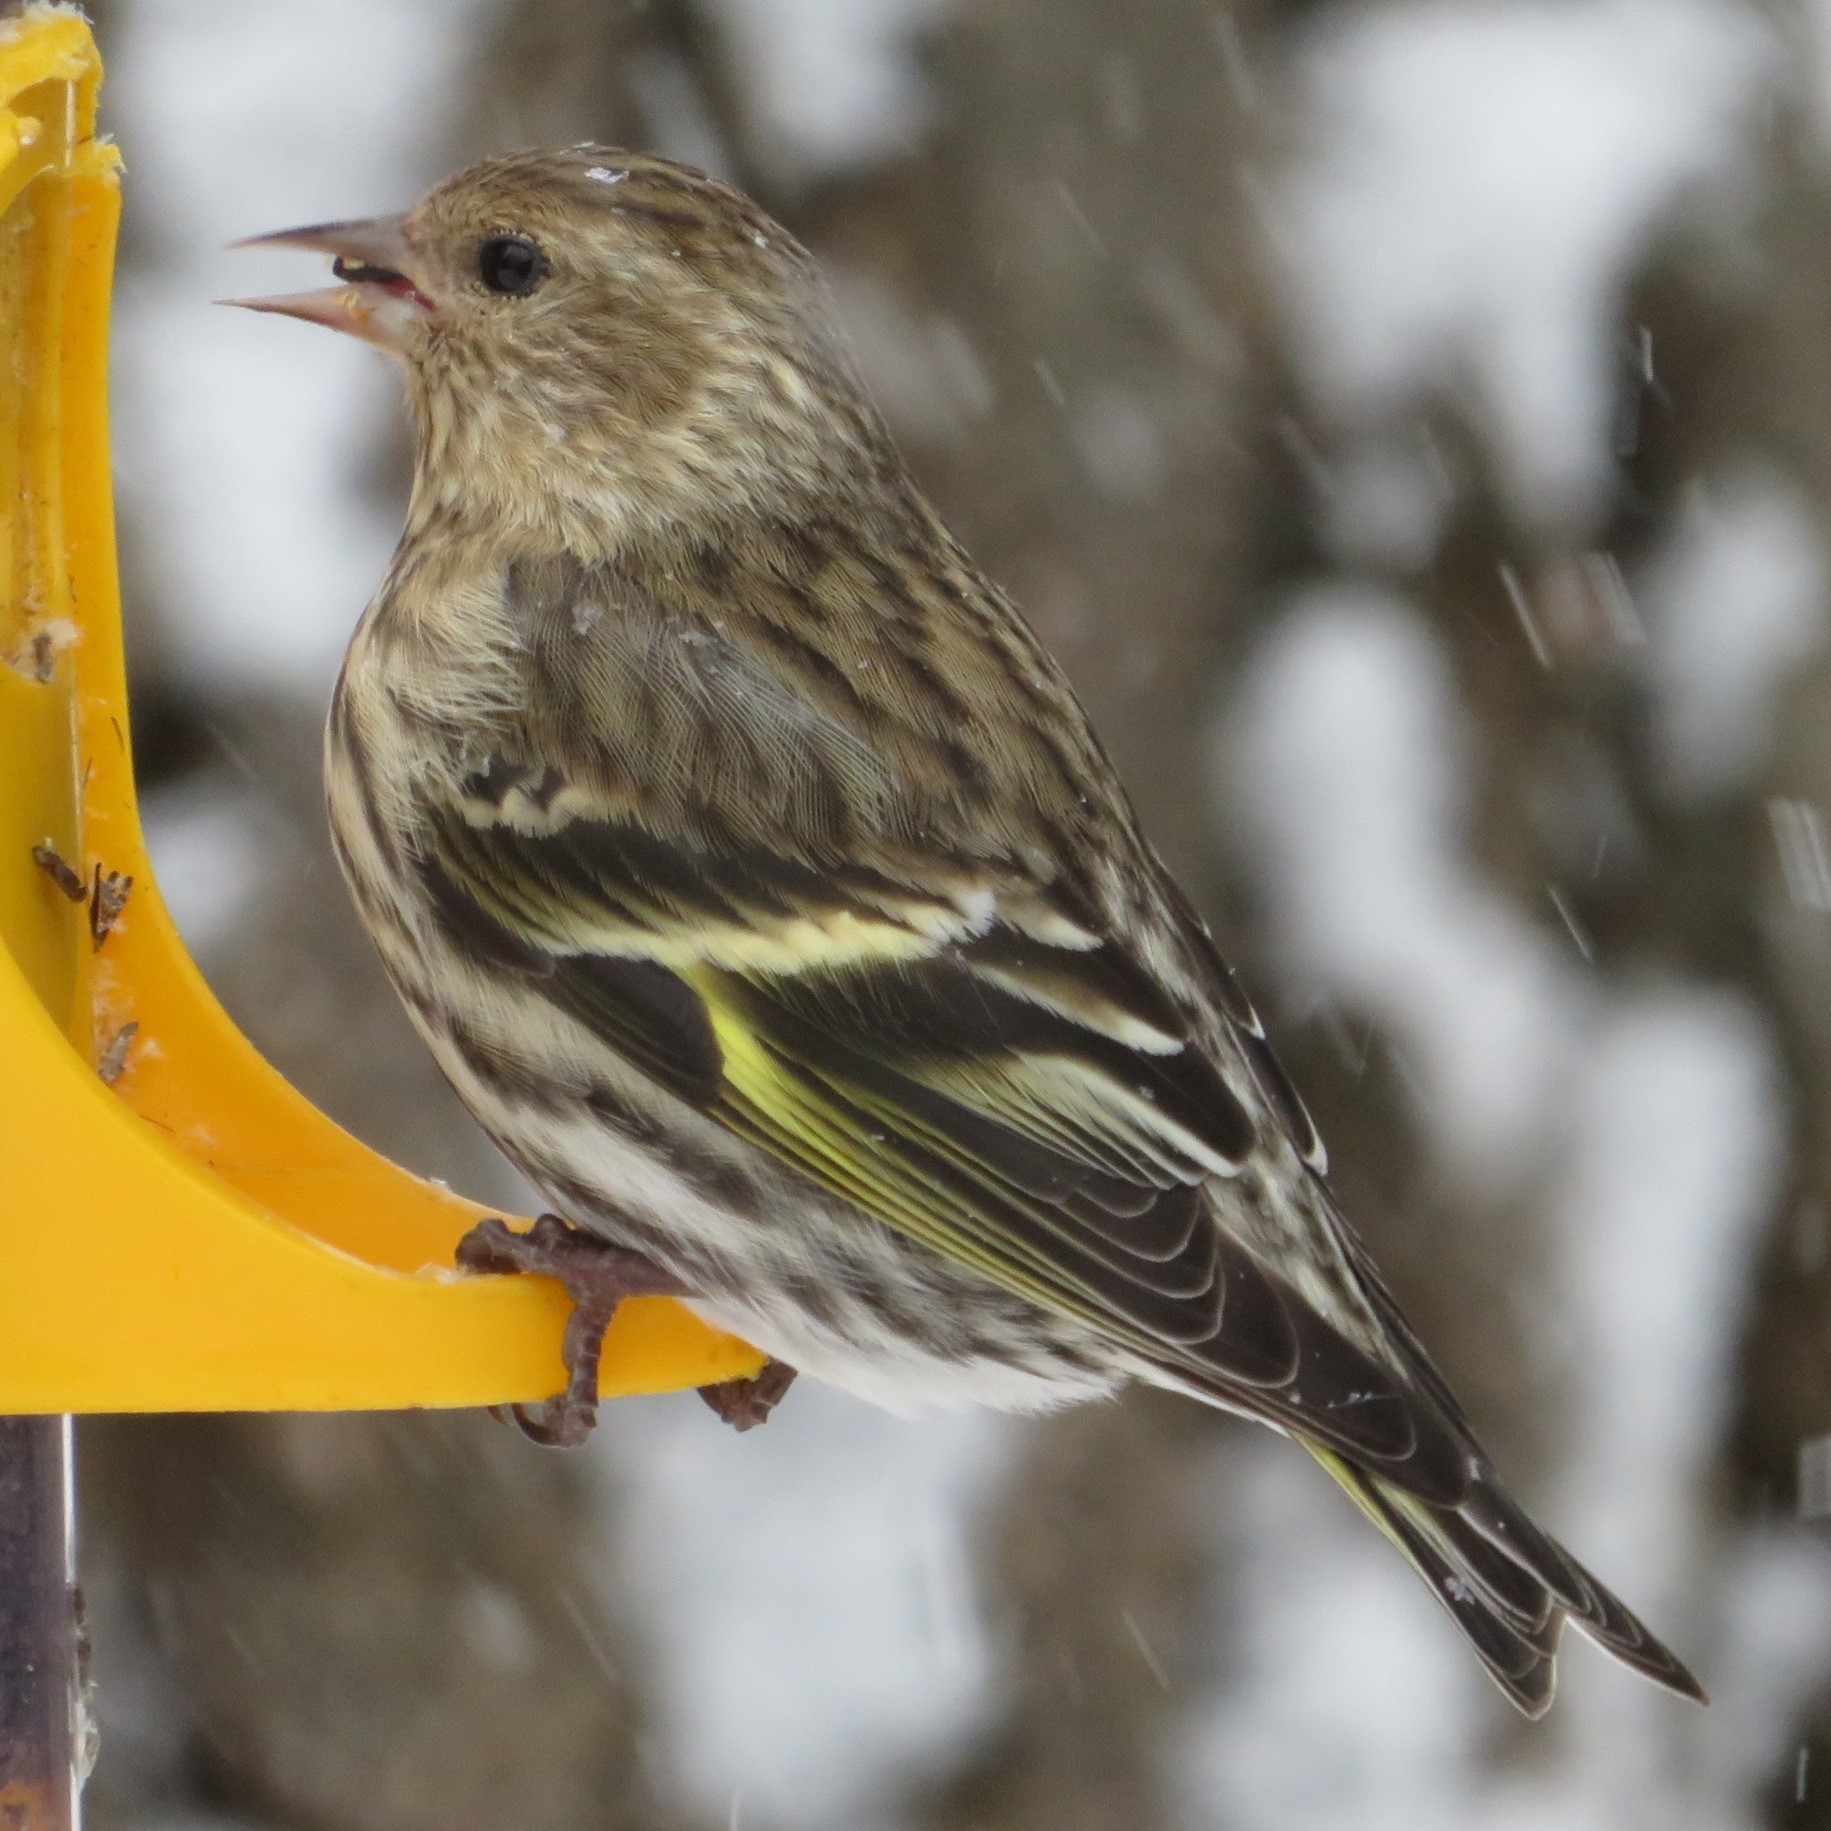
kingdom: Animalia
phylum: Chordata
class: Aves
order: Passeriformes
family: Fringillidae
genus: Spinus
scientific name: Spinus pinus
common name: Pine siskin
